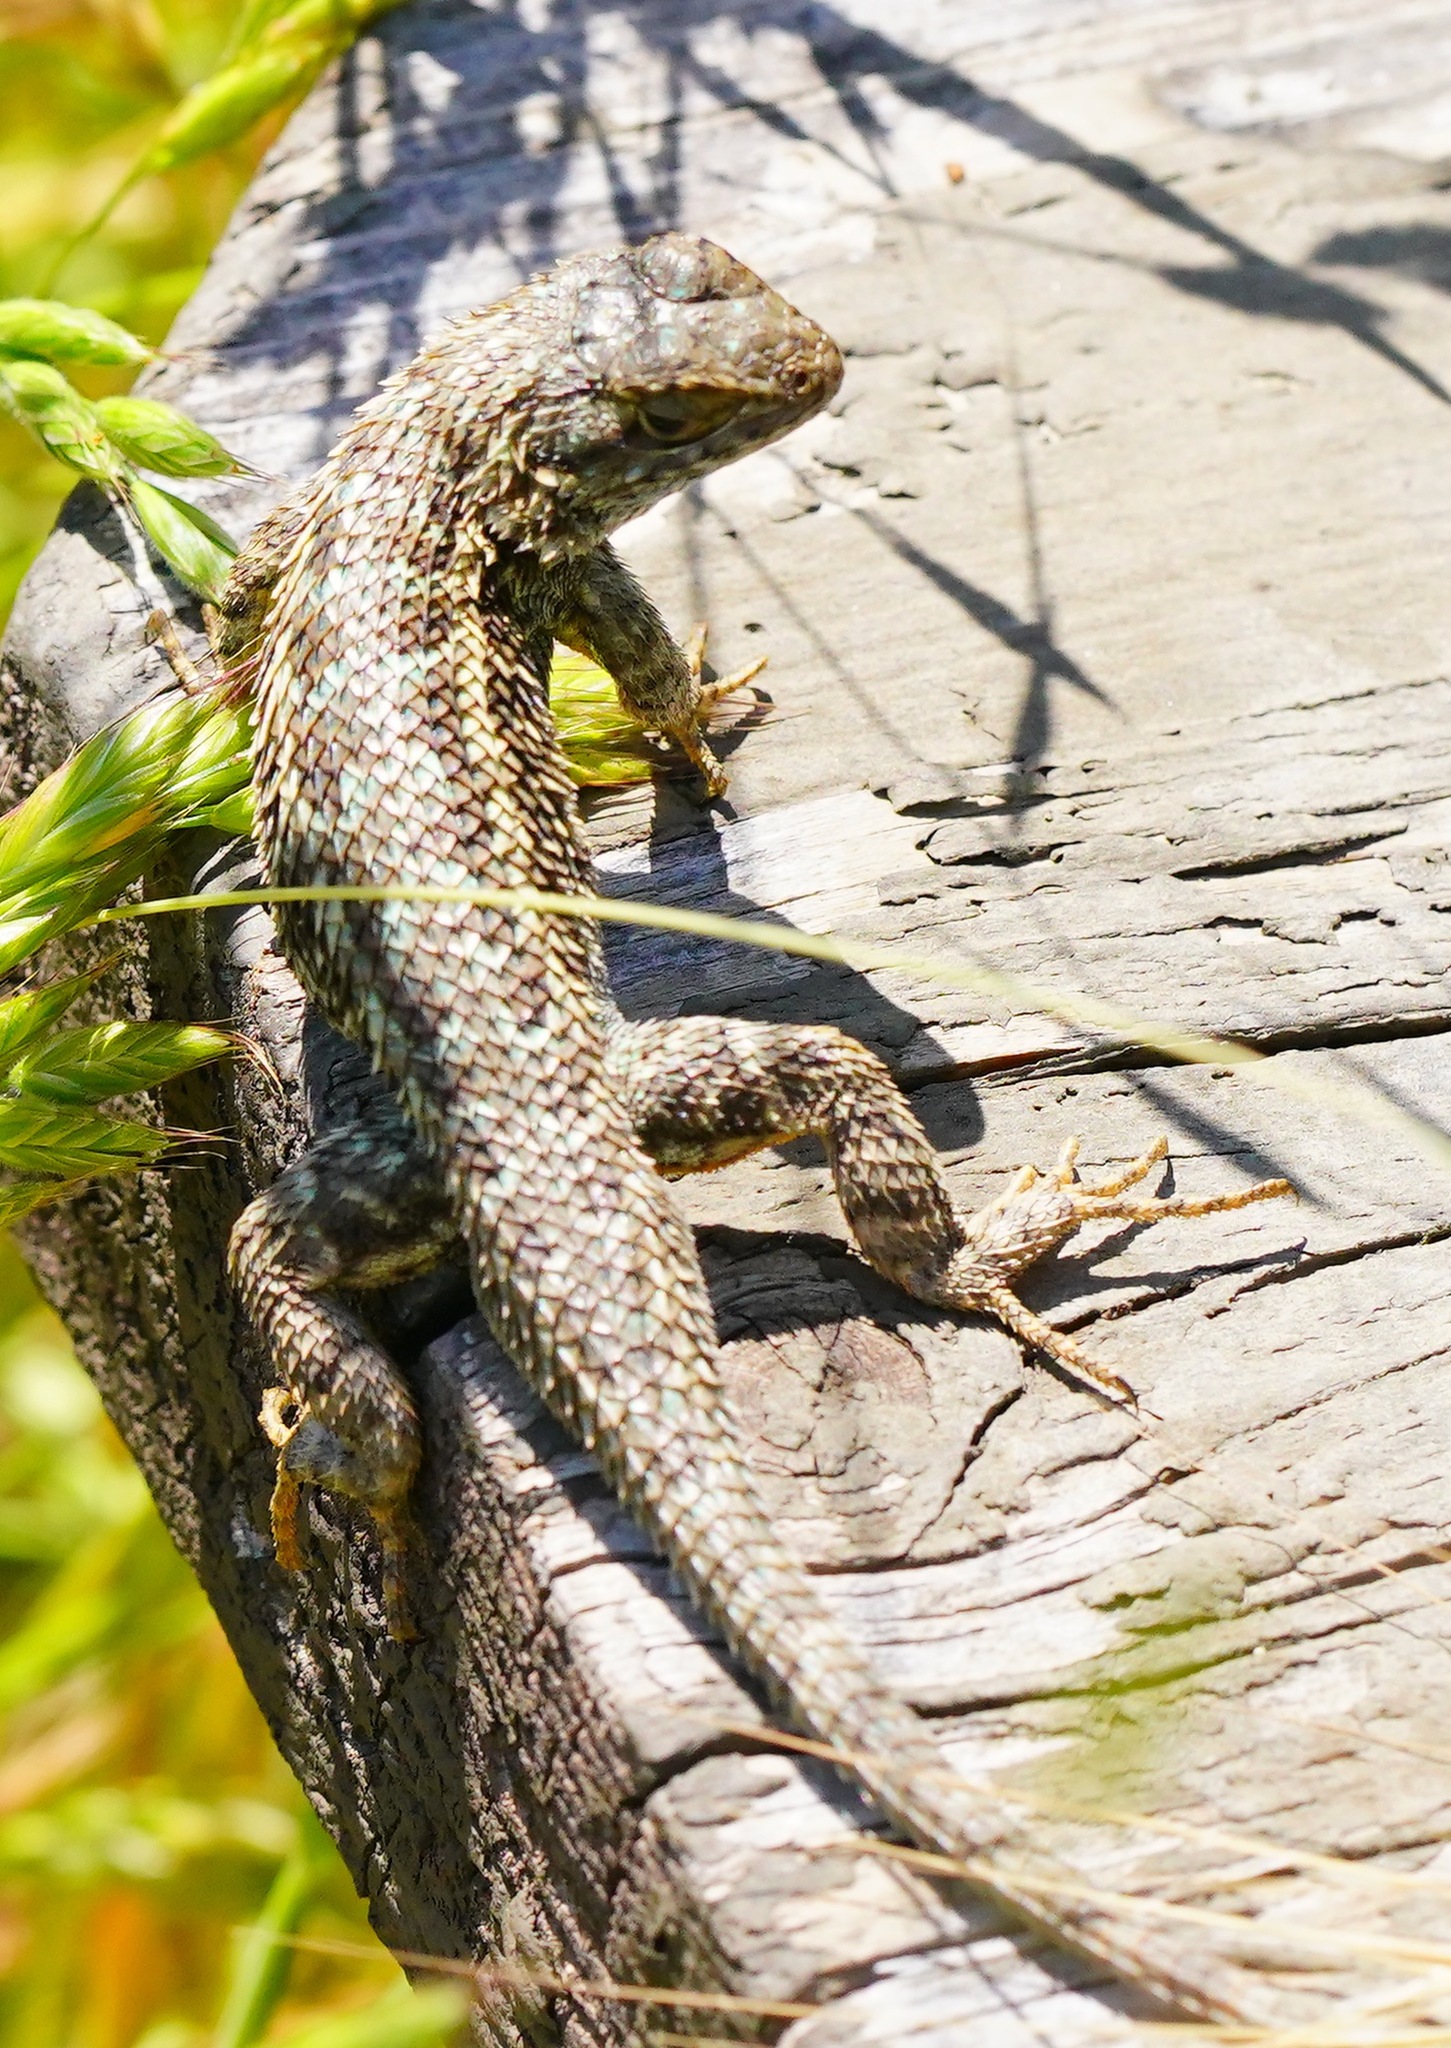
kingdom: Animalia
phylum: Chordata
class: Squamata
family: Phrynosomatidae
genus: Sceloporus
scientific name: Sceloporus occidentalis
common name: Western fence lizard
